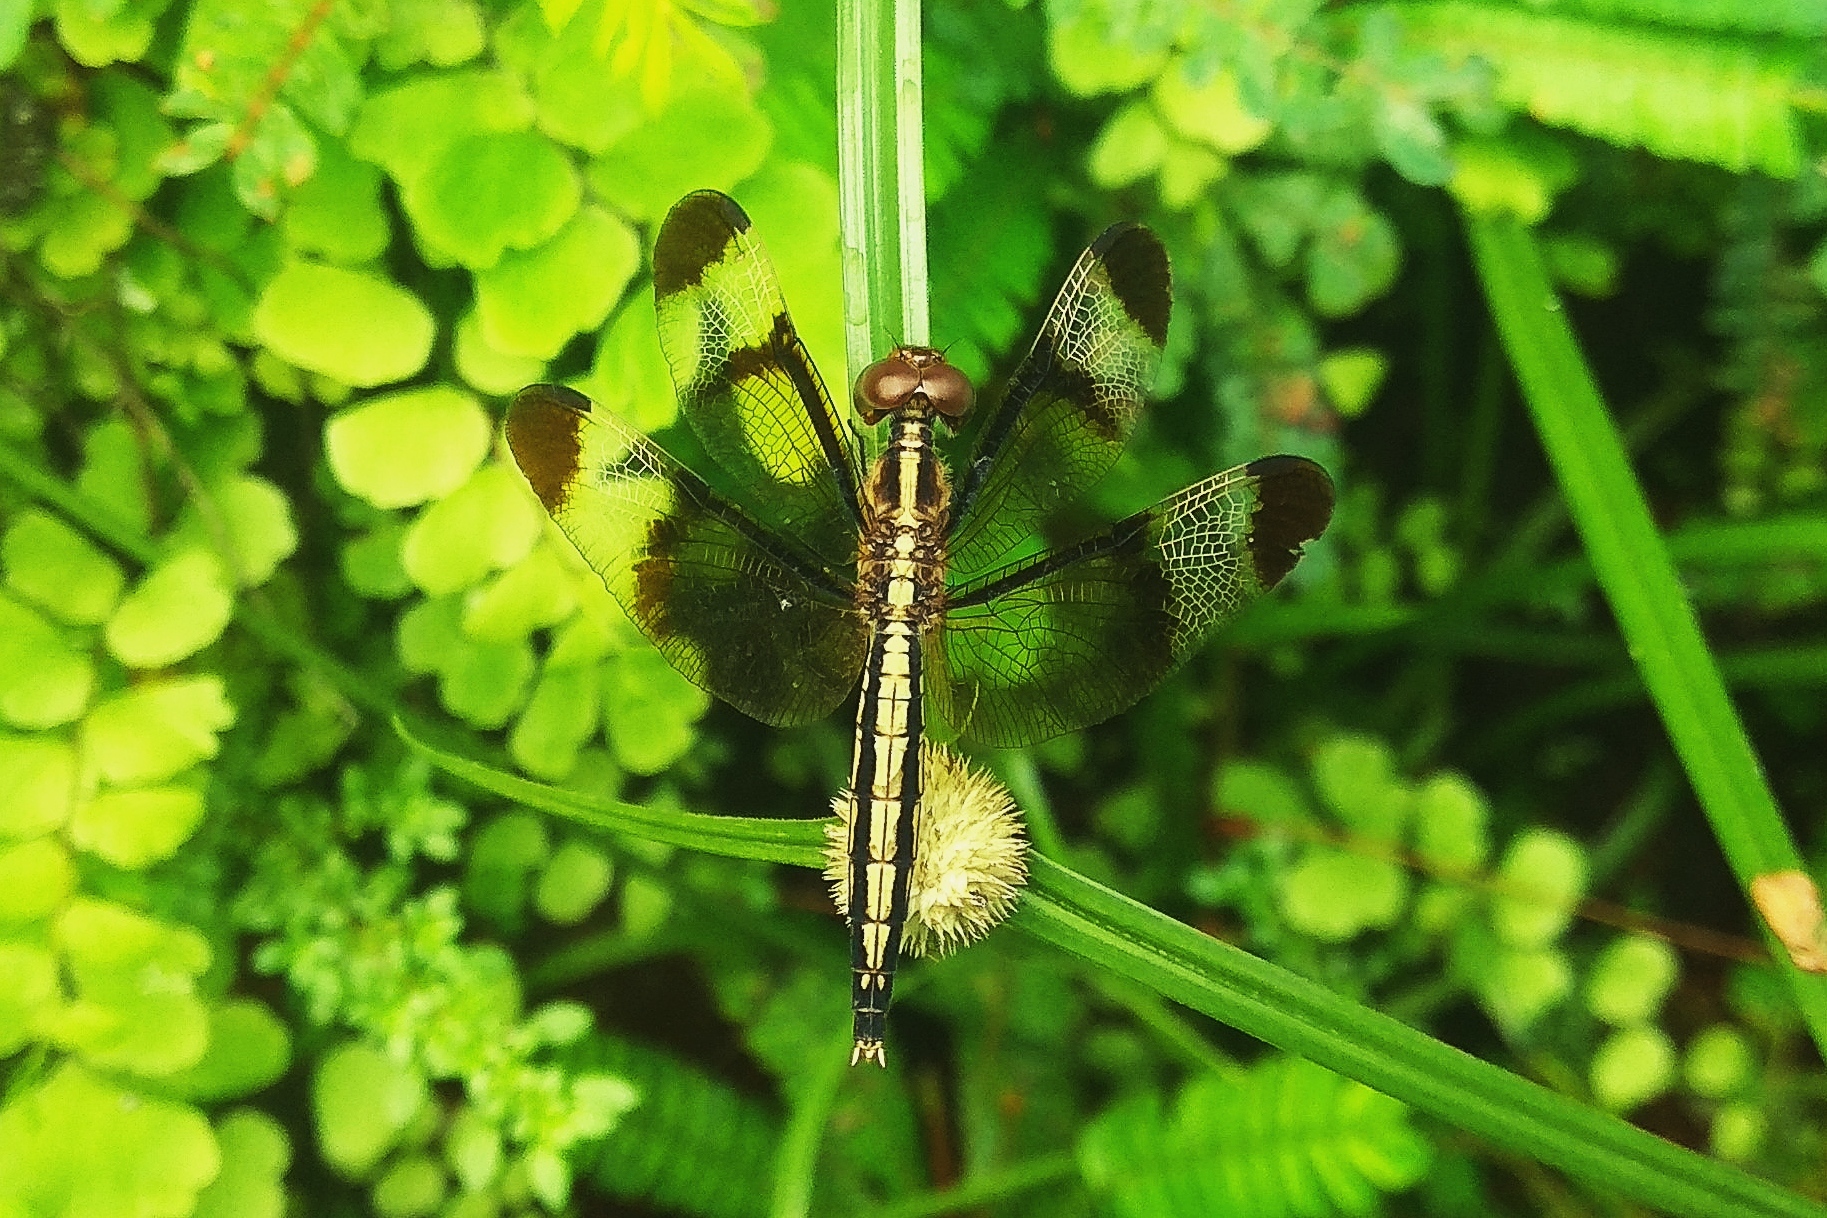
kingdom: Animalia
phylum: Arthropoda
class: Insecta
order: Odonata
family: Libellulidae
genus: Neurothemis
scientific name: Neurothemis tullia
